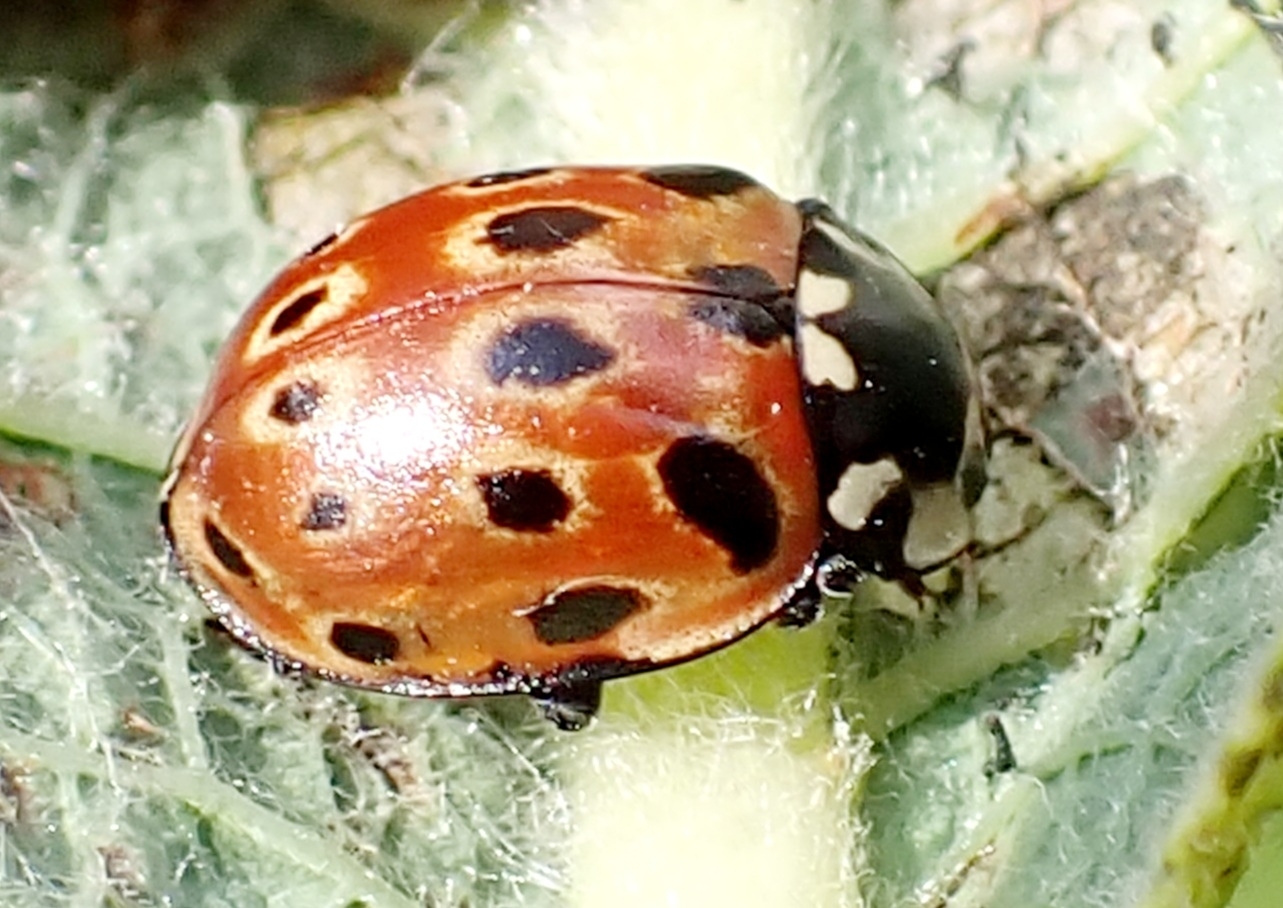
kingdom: Animalia
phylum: Arthropoda
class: Insecta
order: Coleoptera
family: Coccinellidae
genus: Anatis
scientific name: Anatis ocellata
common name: Eyed ladybird
